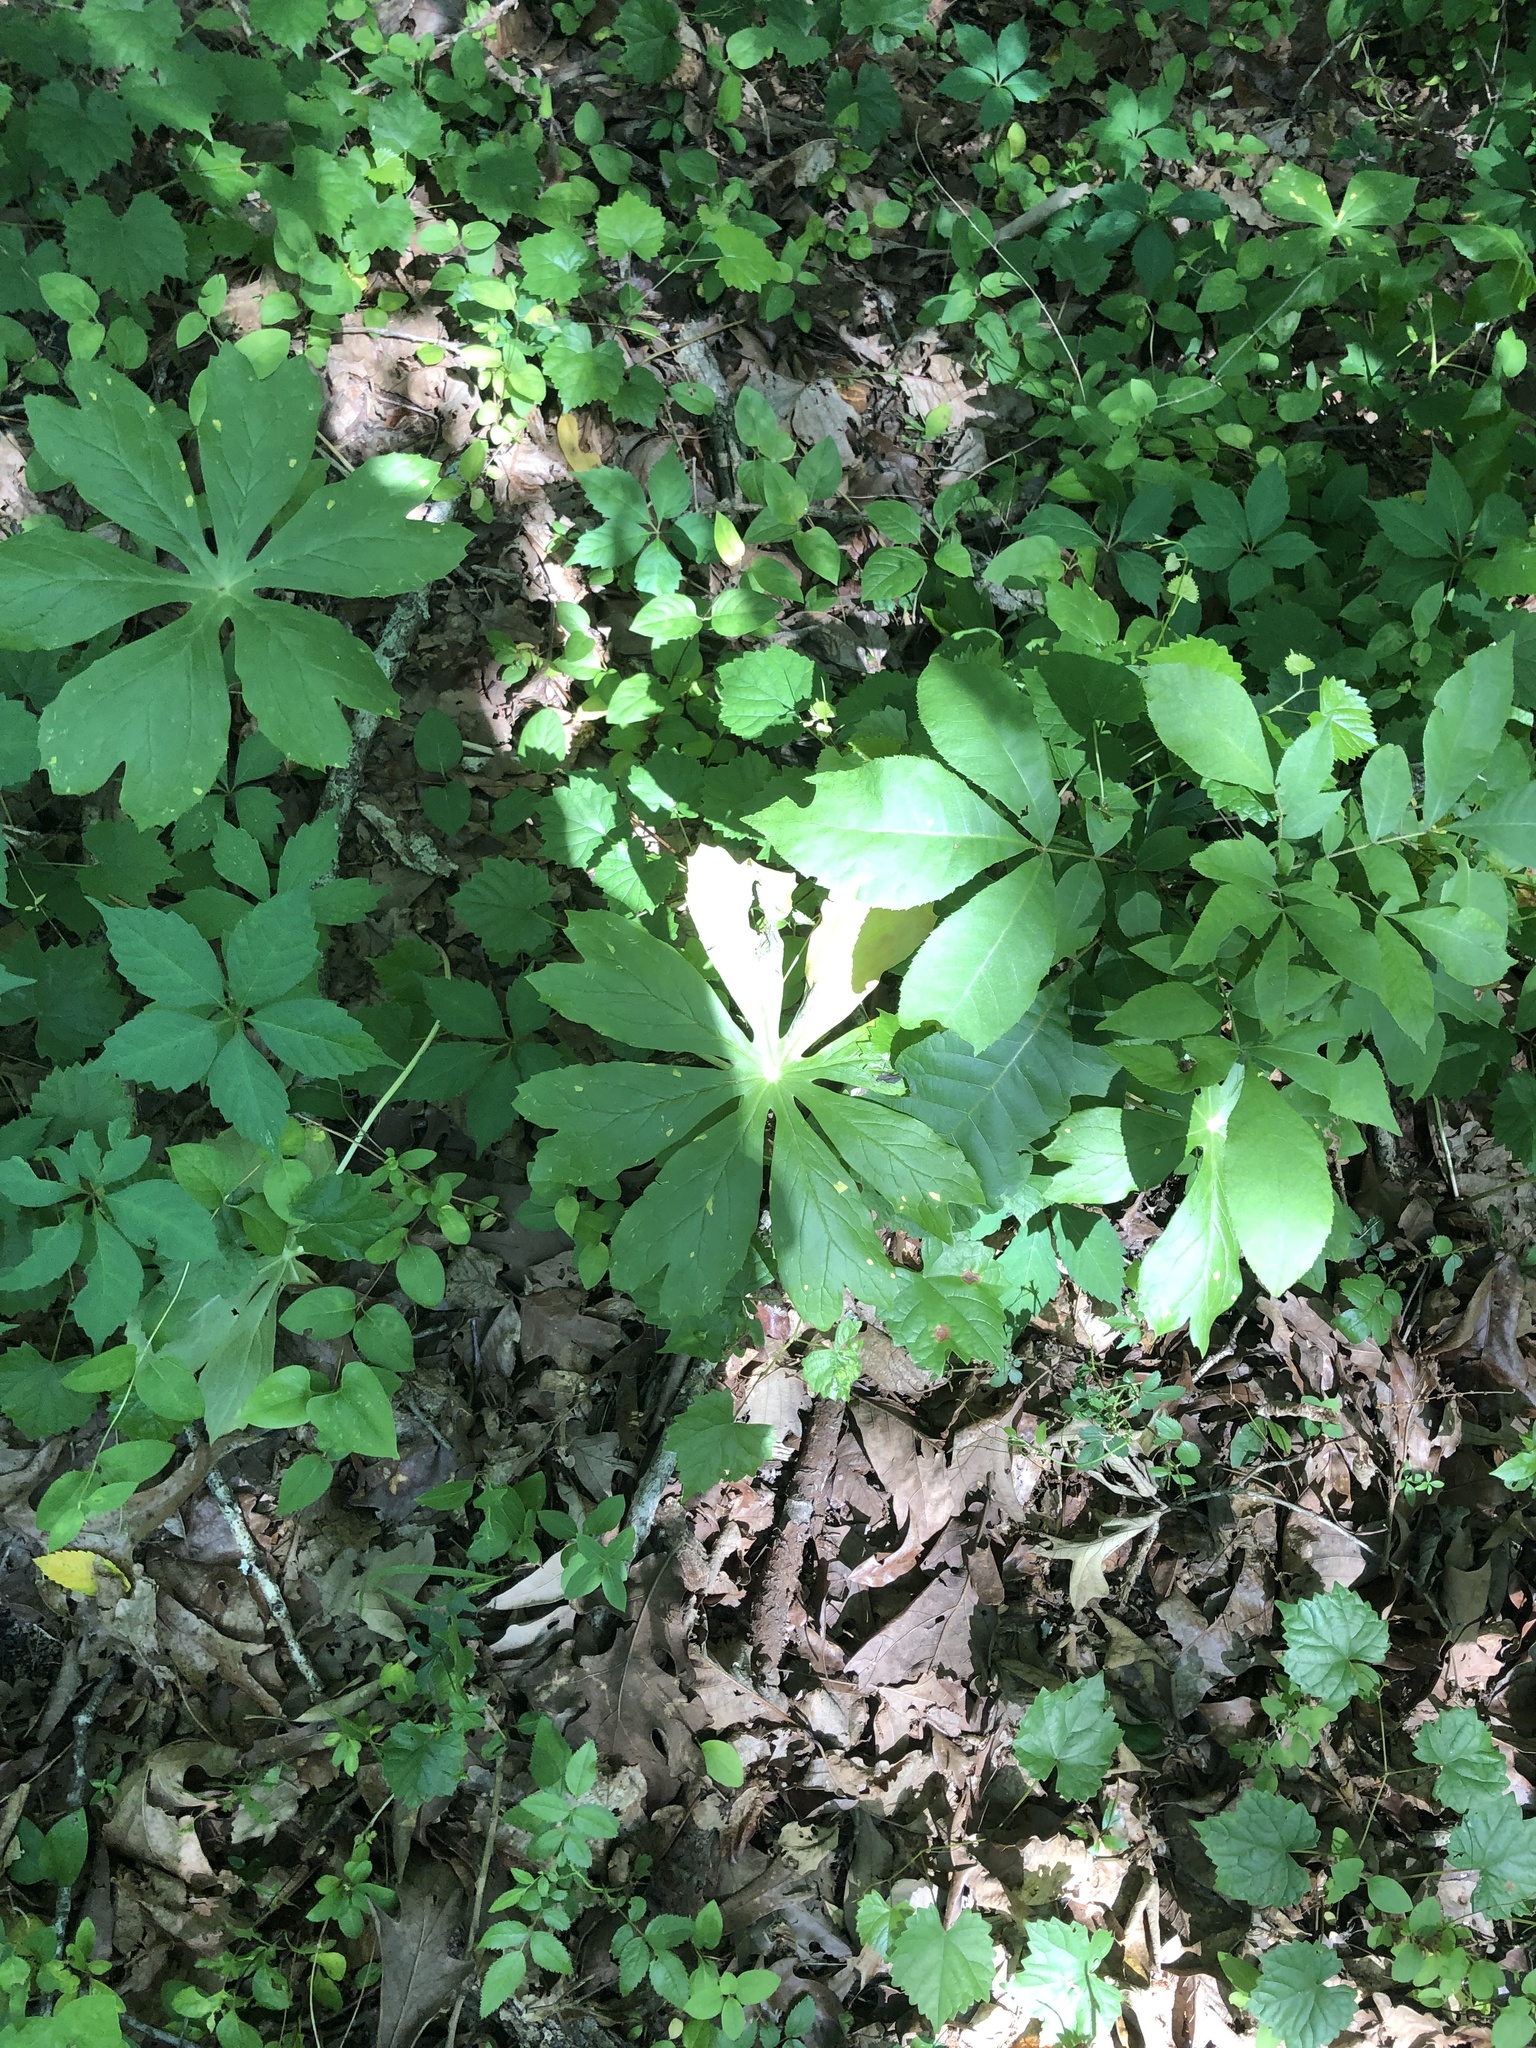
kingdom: Plantae
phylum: Tracheophyta
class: Magnoliopsida
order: Ranunculales
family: Berberidaceae
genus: Podophyllum
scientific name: Podophyllum peltatum
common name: Wild mandrake
